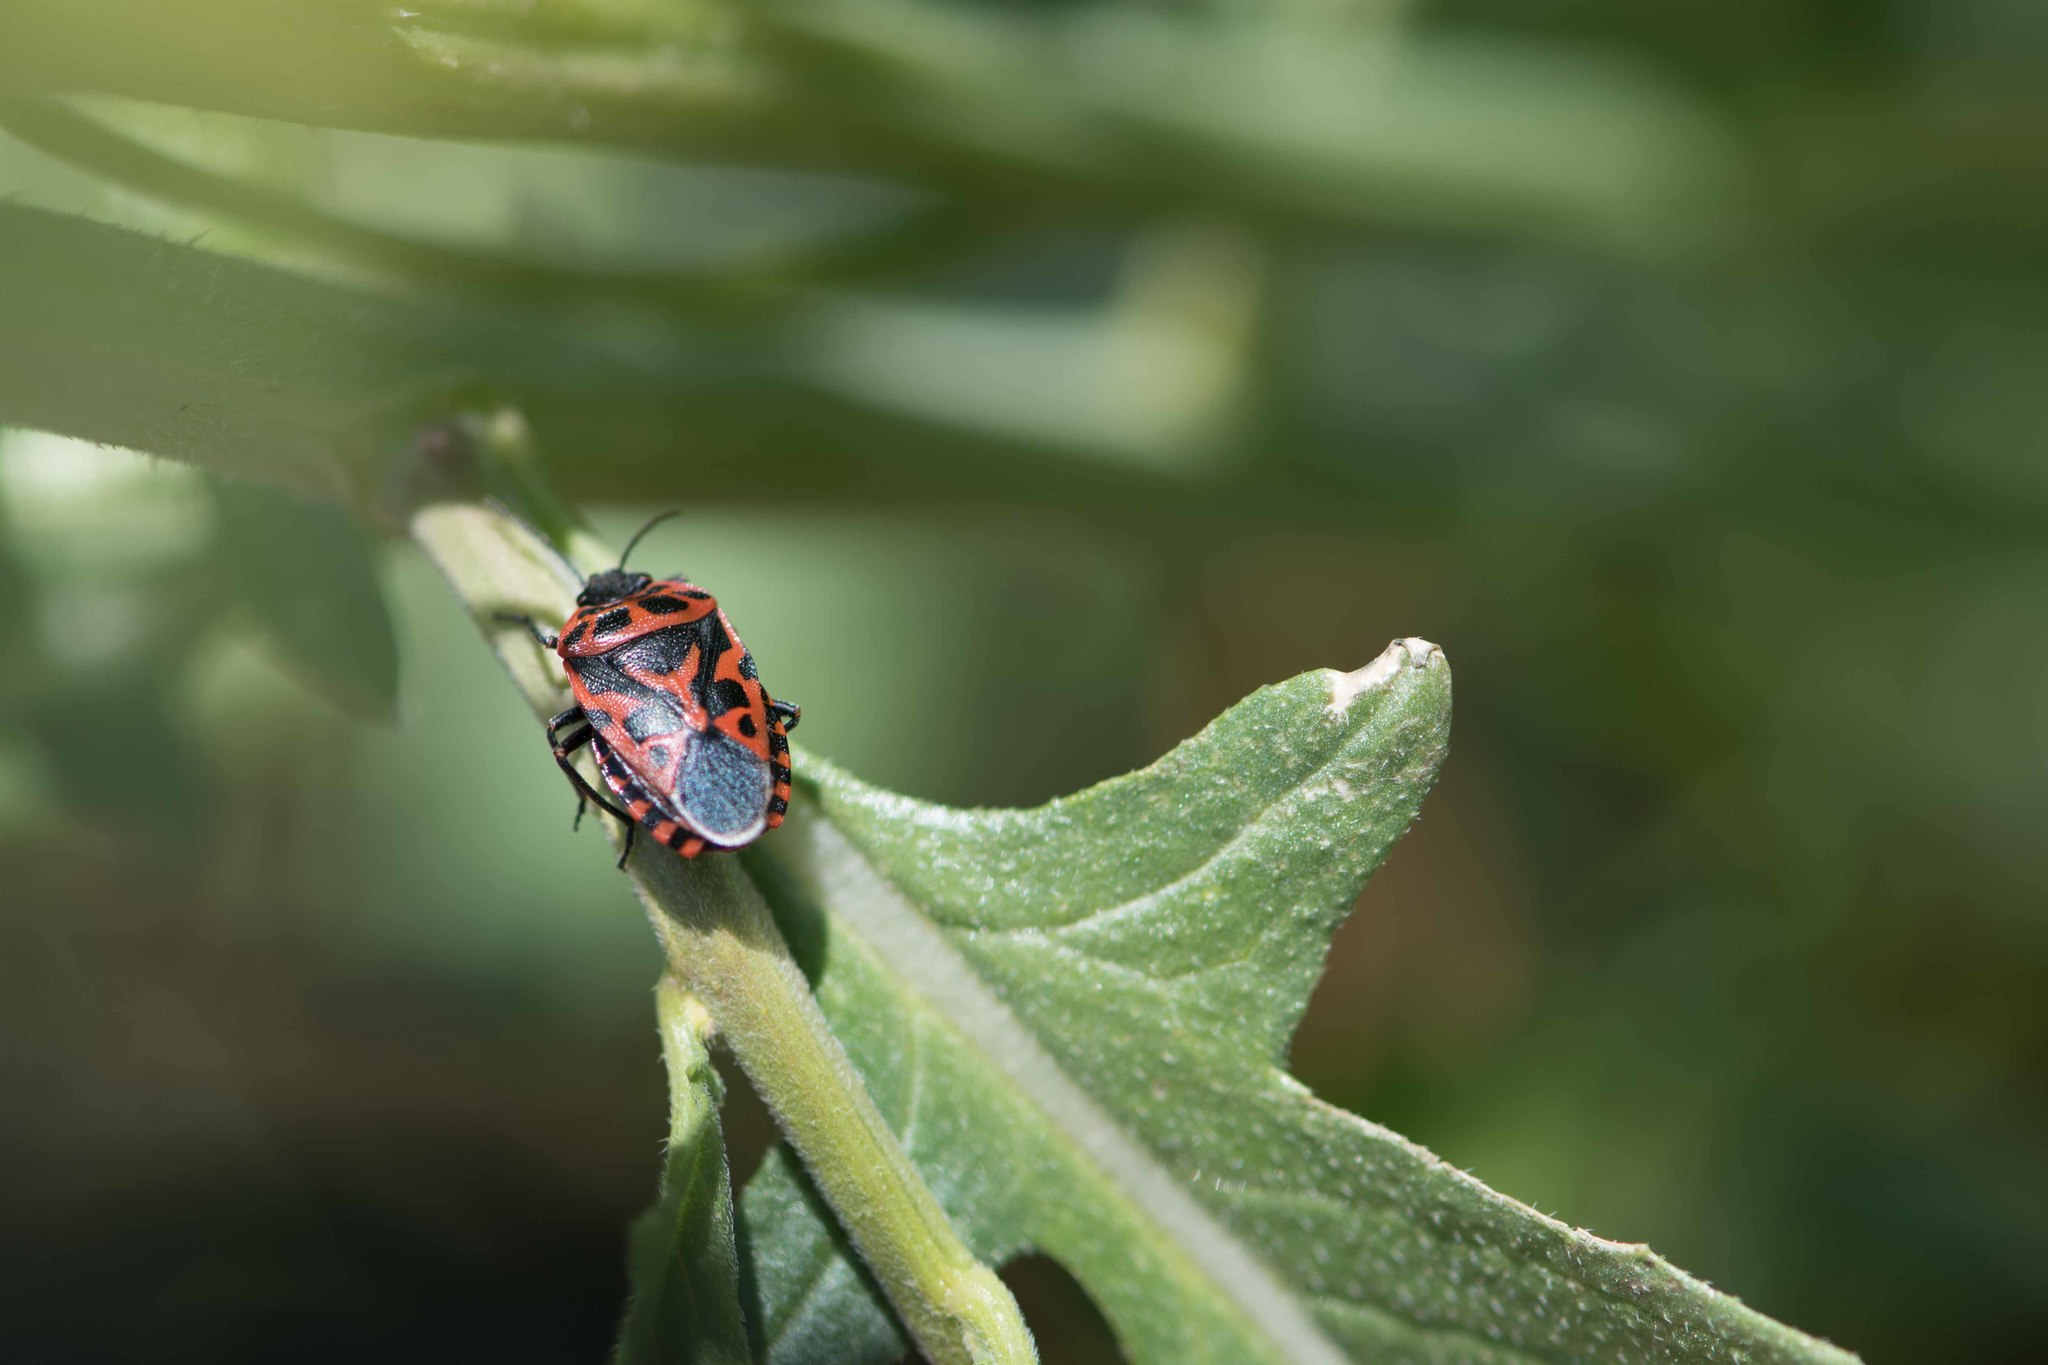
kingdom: Animalia
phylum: Arthropoda
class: Insecta
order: Hemiptera
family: Pentatomidae
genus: Eurydema
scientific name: Eurydema ventralis
